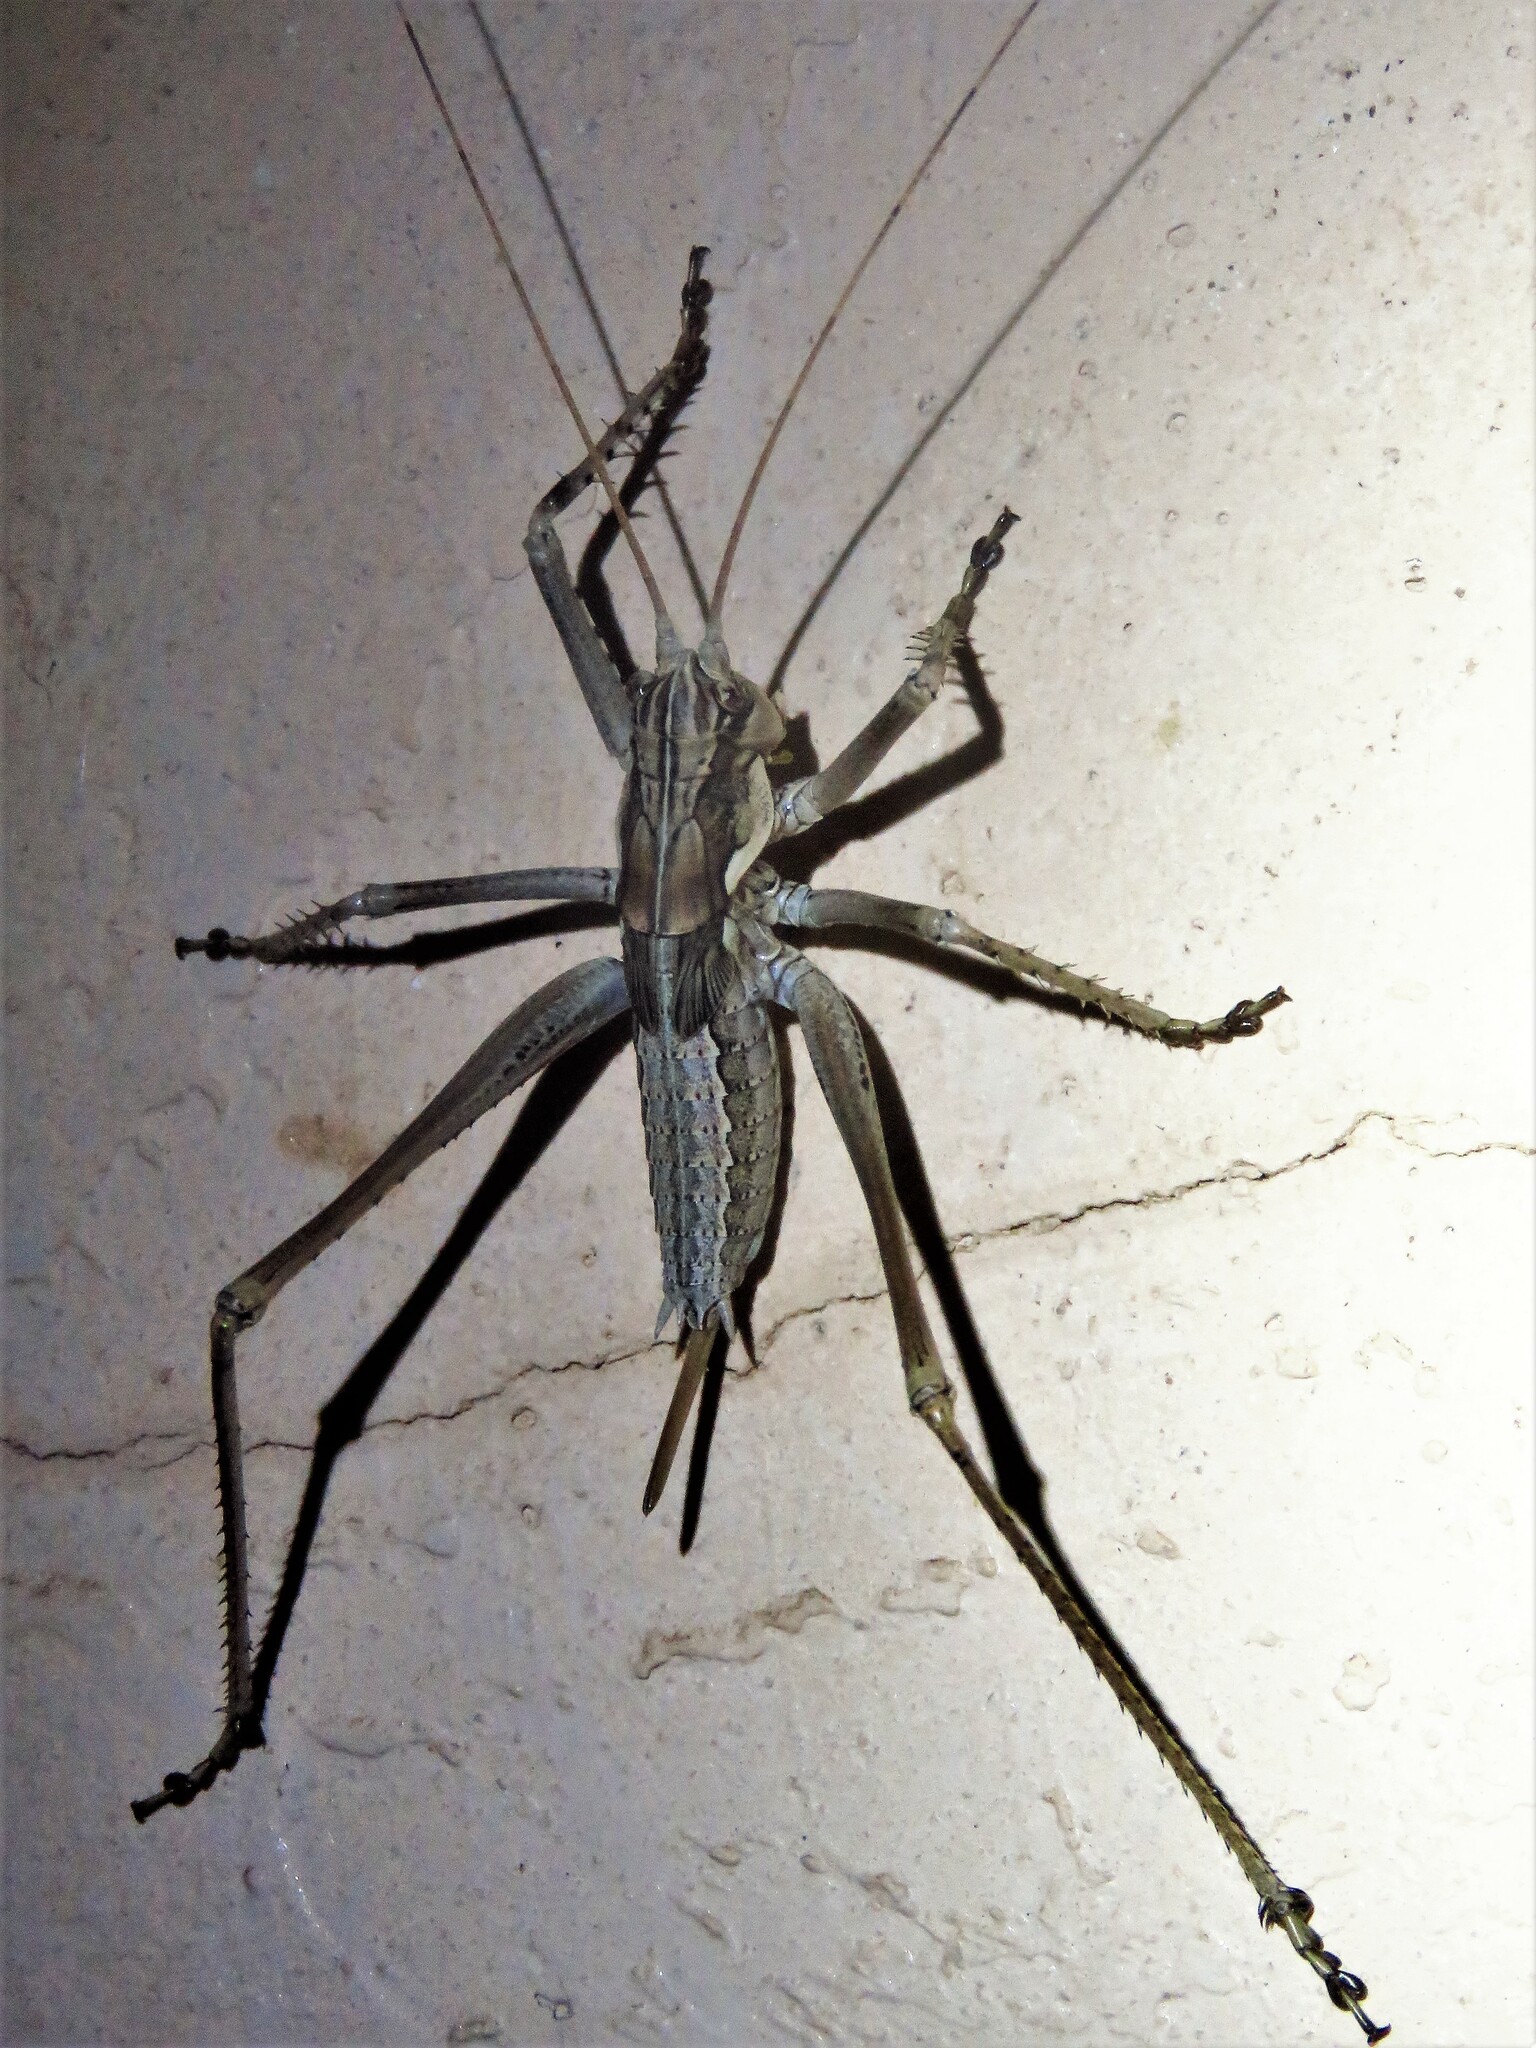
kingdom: Animalia
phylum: Arthropoda
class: Insecta
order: Orthoptera
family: Tettigoniidae
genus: Capnobotes
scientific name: Capnobotes occidentalis
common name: Western longwing
